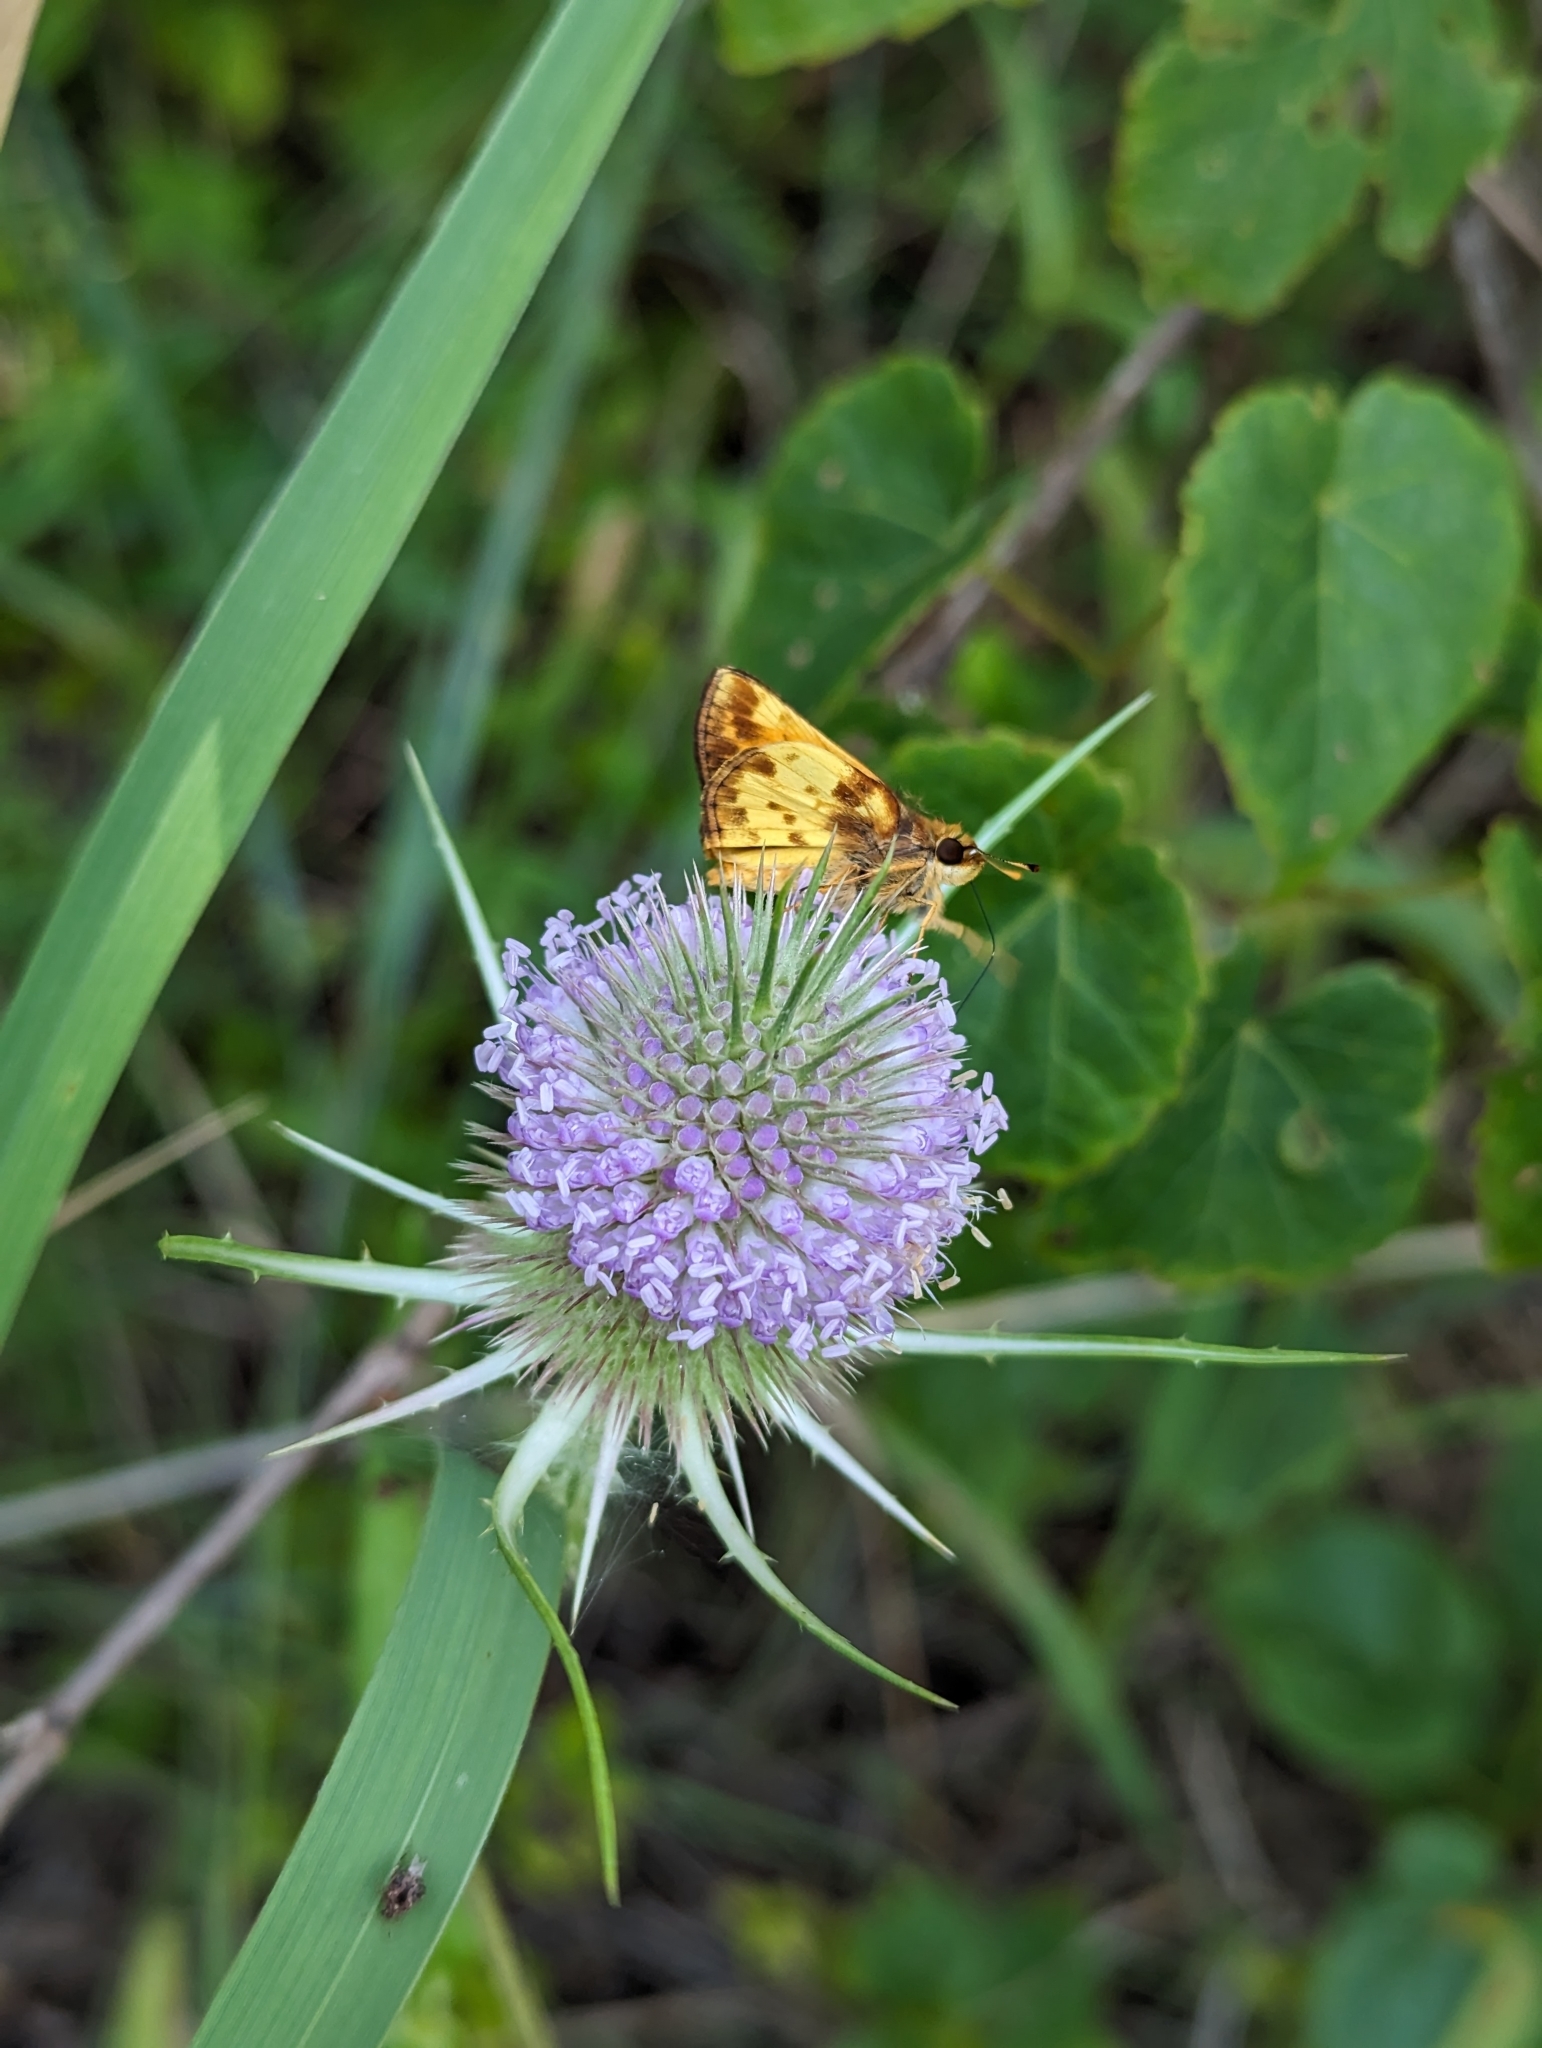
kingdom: Animalia
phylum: Arthropoda
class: Insecta
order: Lepidoptera
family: Hesperiidae
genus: Lon
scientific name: Lon zabulon
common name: Zabulon skipper
